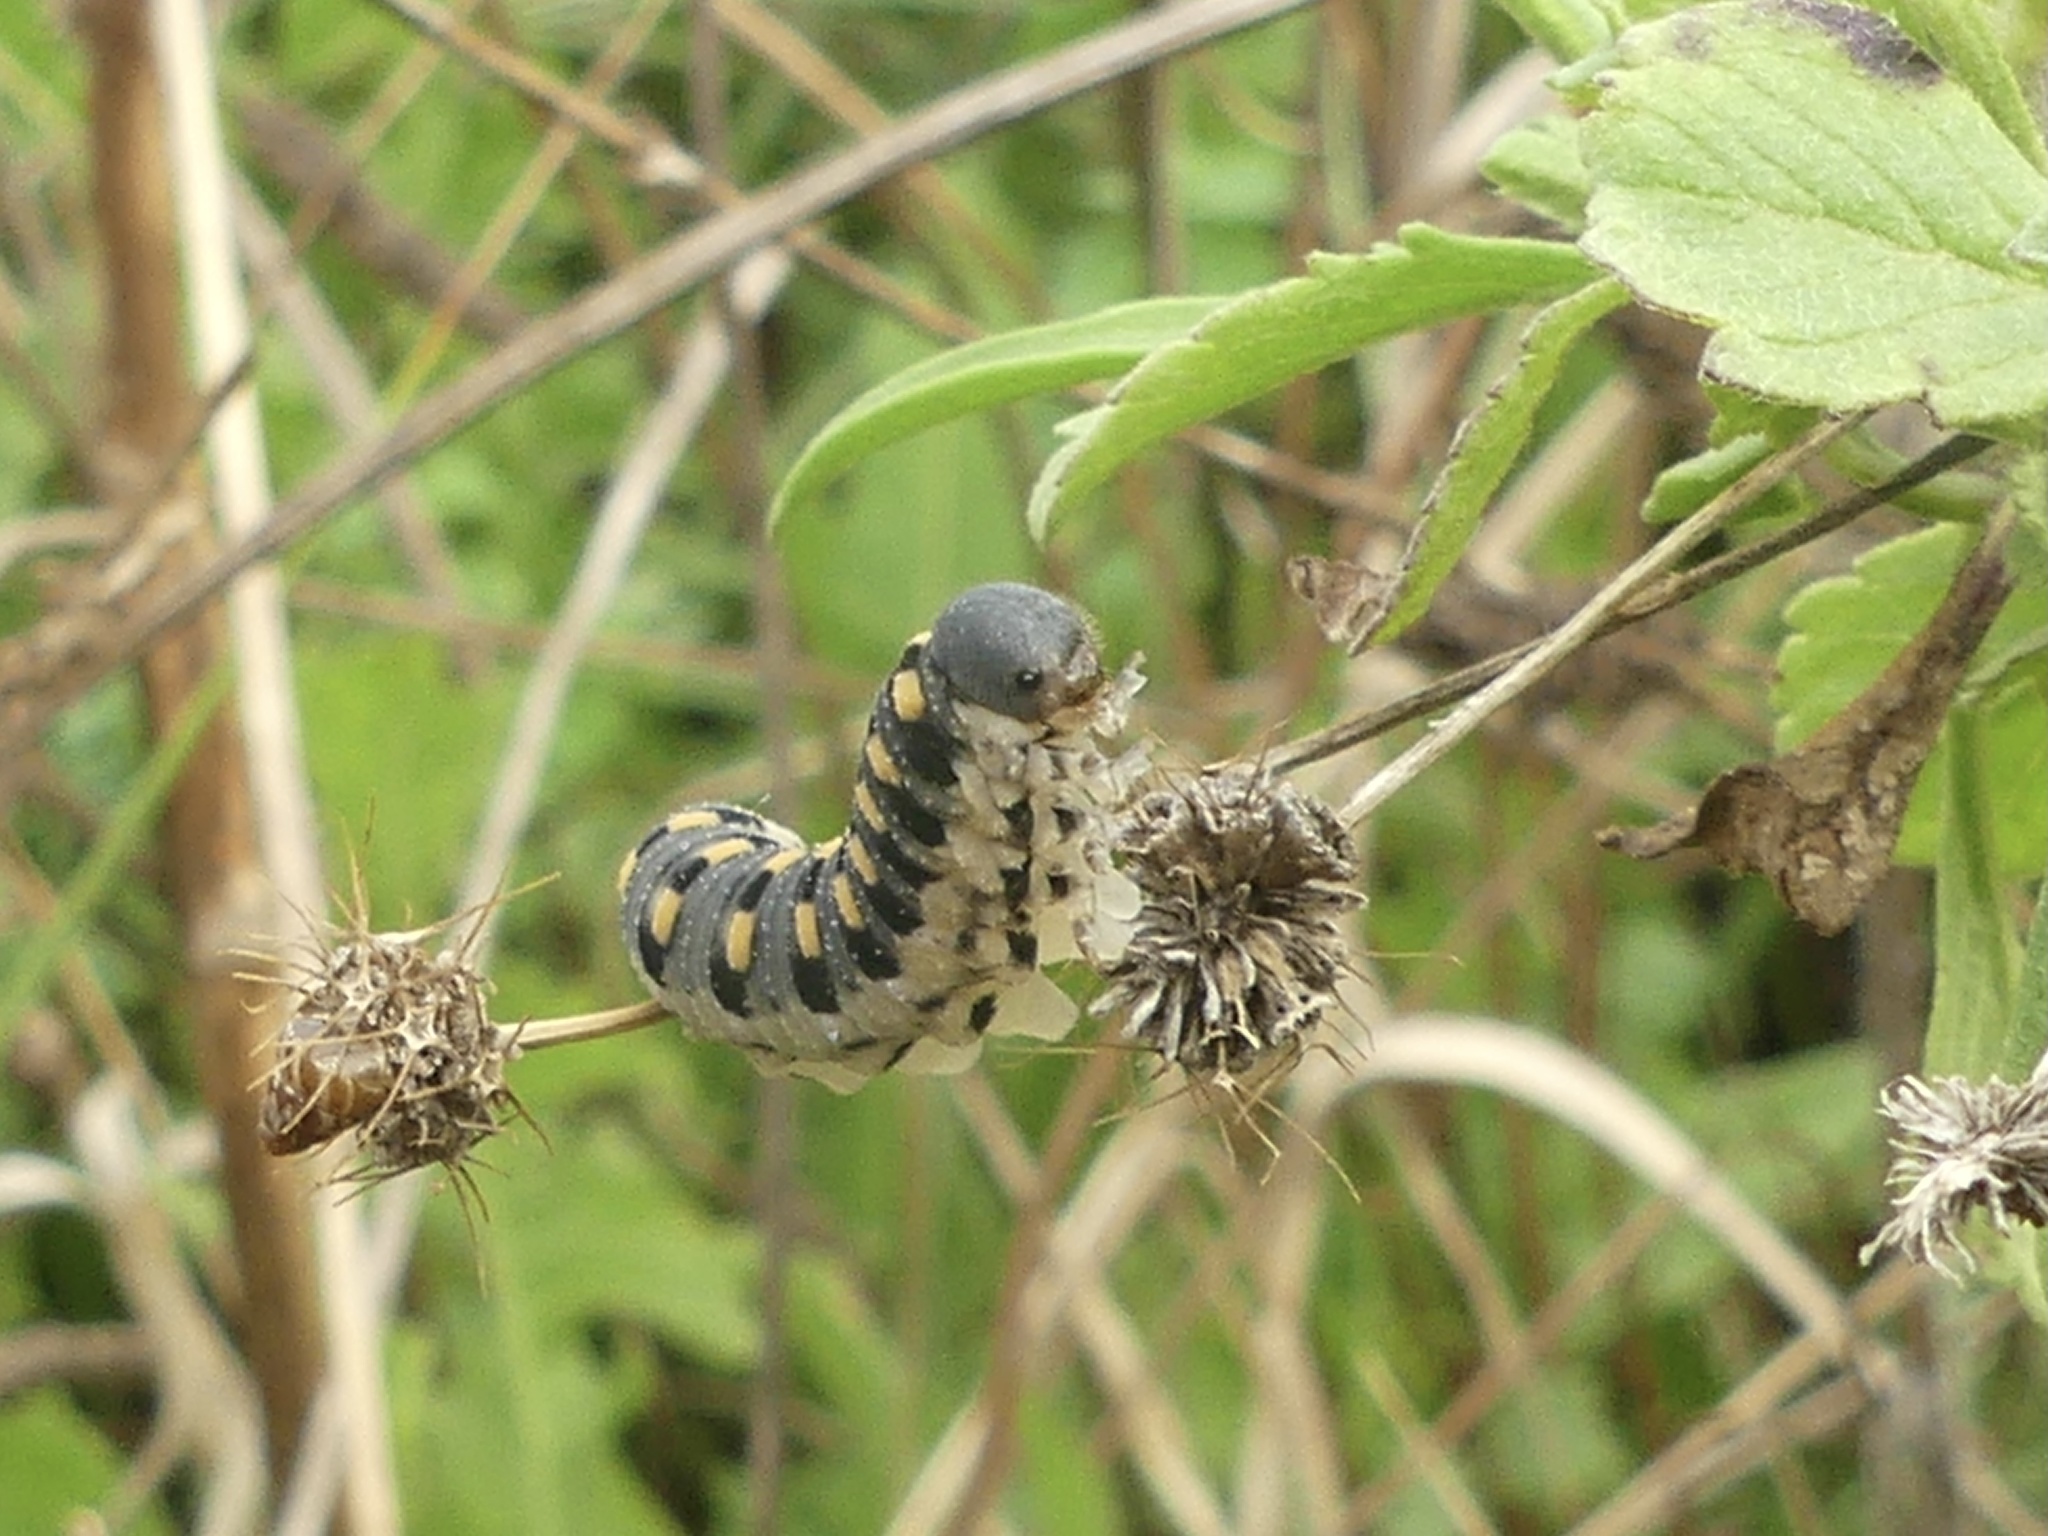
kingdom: Animalia
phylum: Arthropoda
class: Insecta
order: Hymenoptera
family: Cimbicidae
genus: Abia
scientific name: Abia nitens
